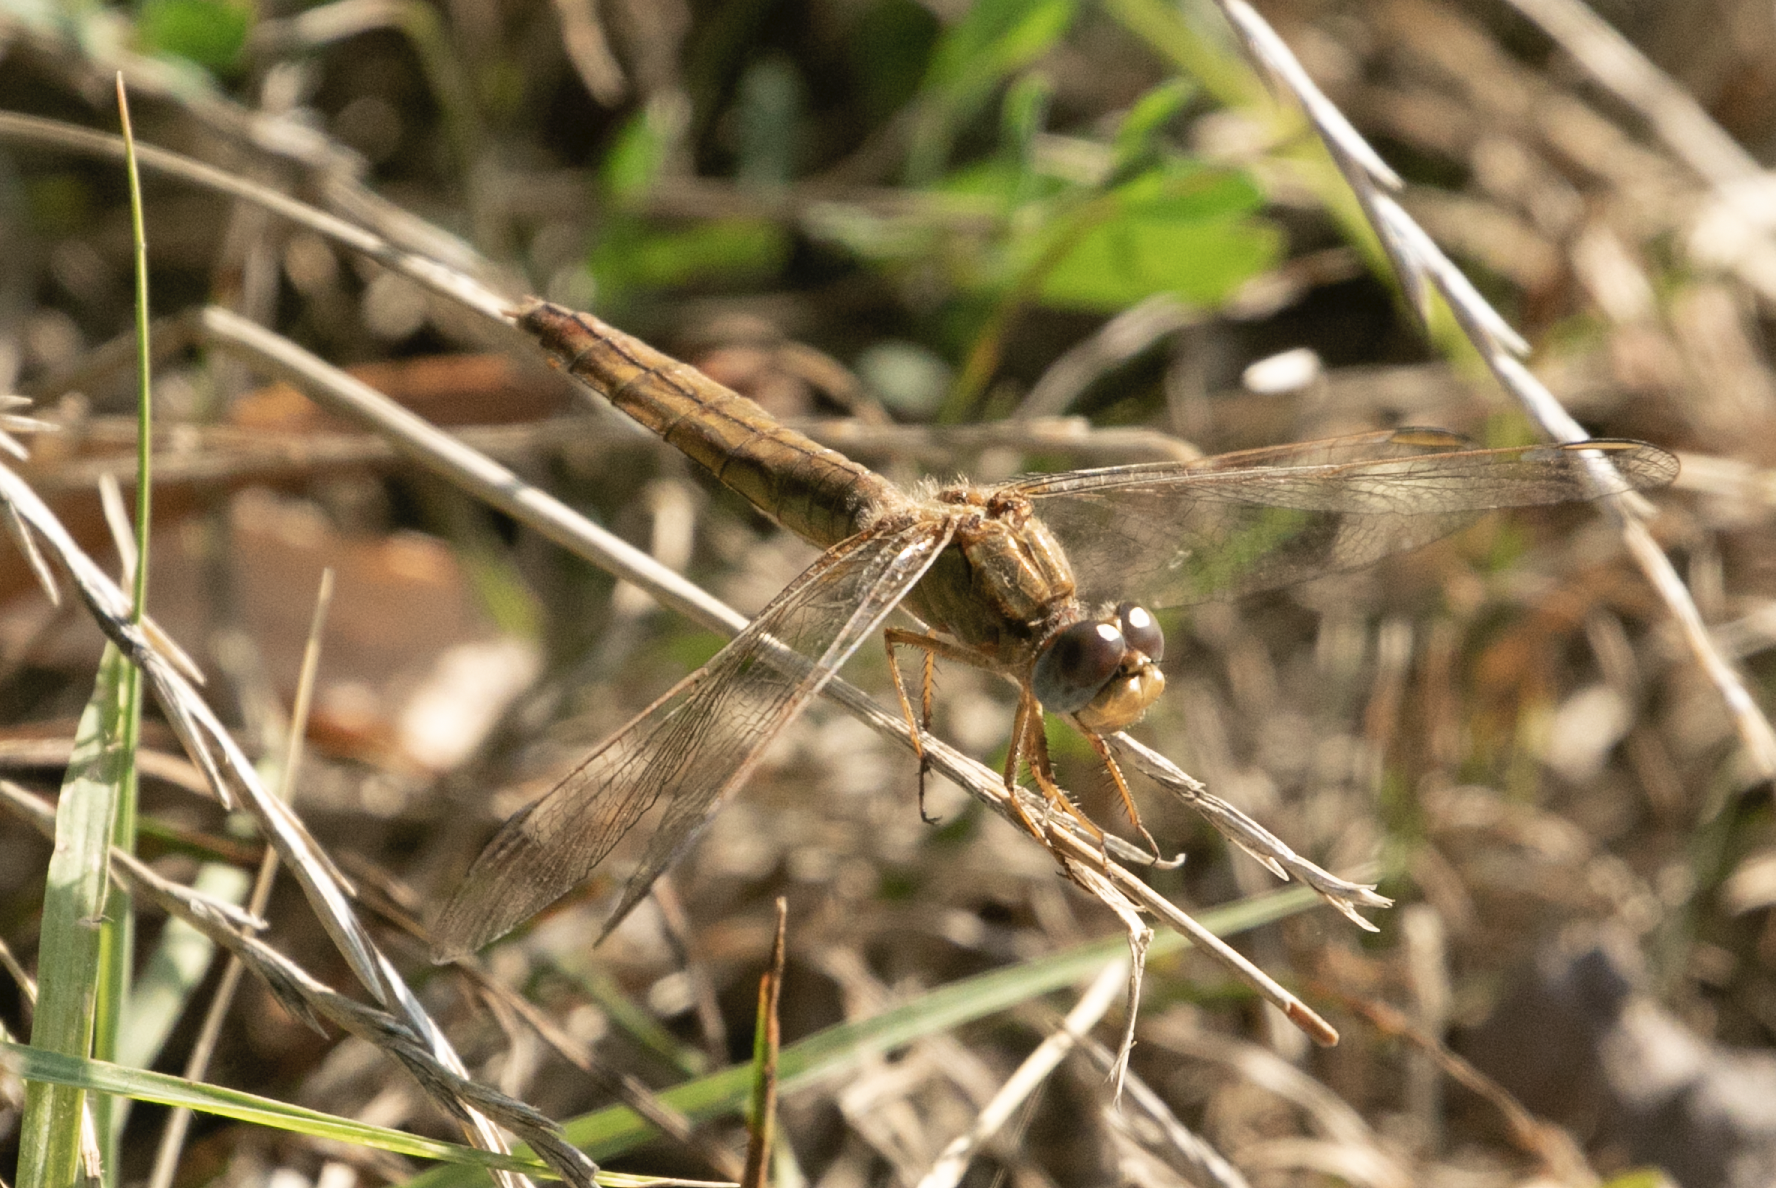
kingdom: Animalia
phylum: Arthropoda
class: Insecta
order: Odonata
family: Libellulidae
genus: Crocothemis
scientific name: Crocothemis erythraea
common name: Scarlet dragonfly
